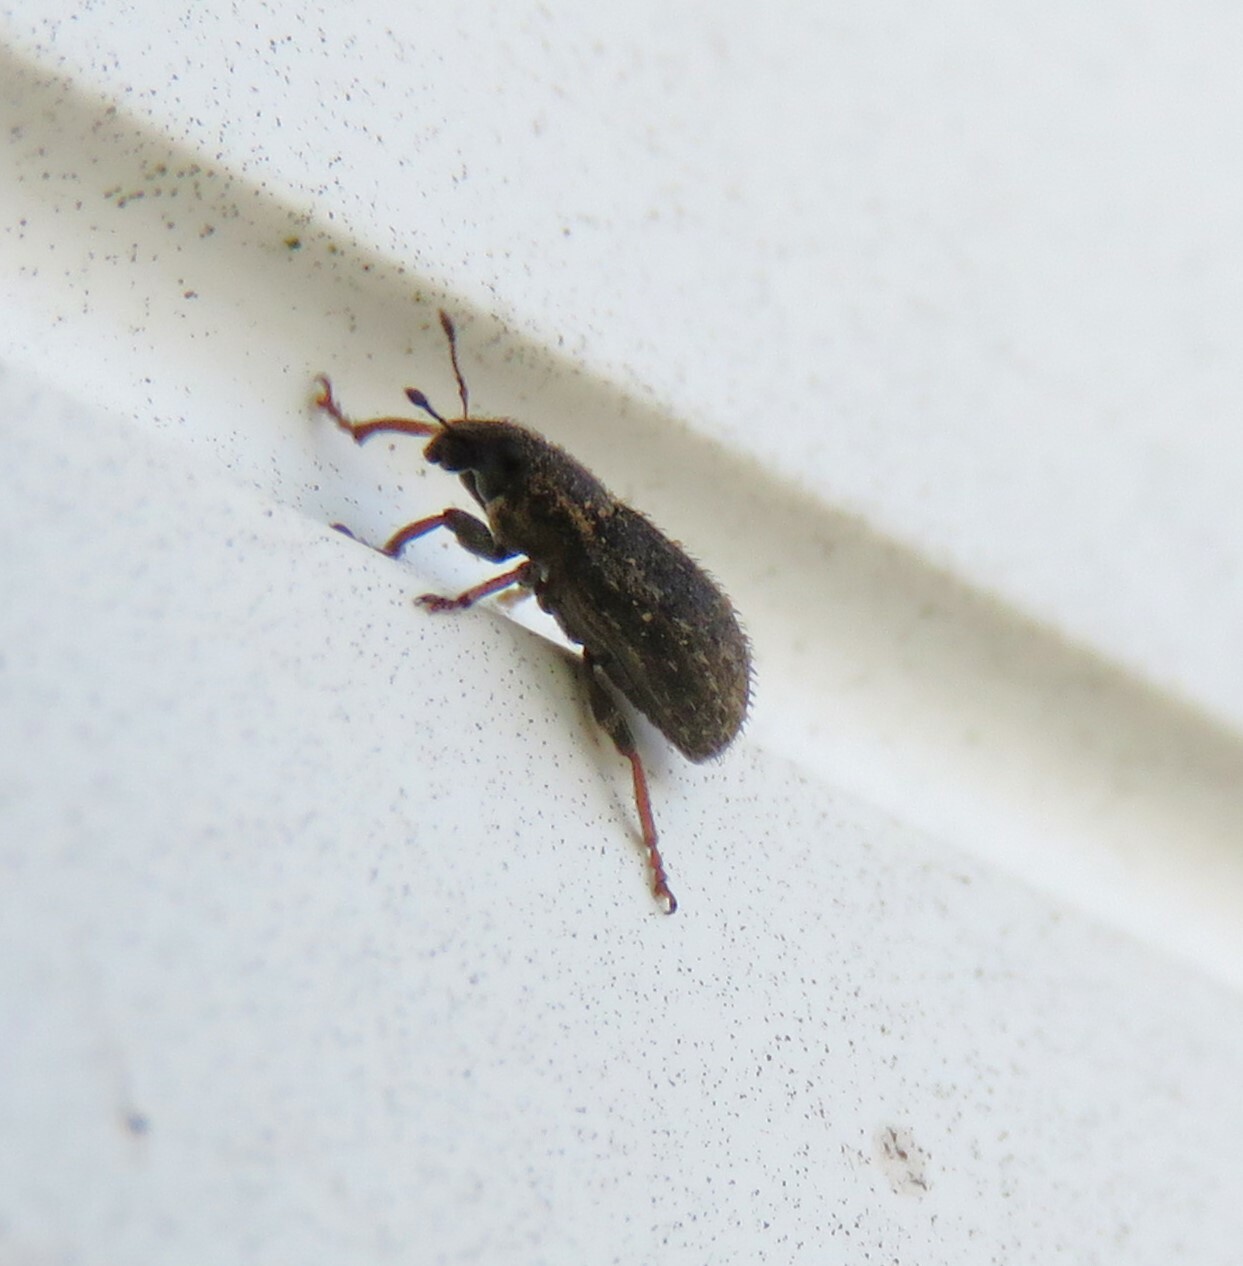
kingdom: Animalia
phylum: Arthropoda
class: Insecta
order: Coleoptera
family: Curculionidae
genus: Sitona
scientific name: Sitona hispidulus
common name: Clover weevil
